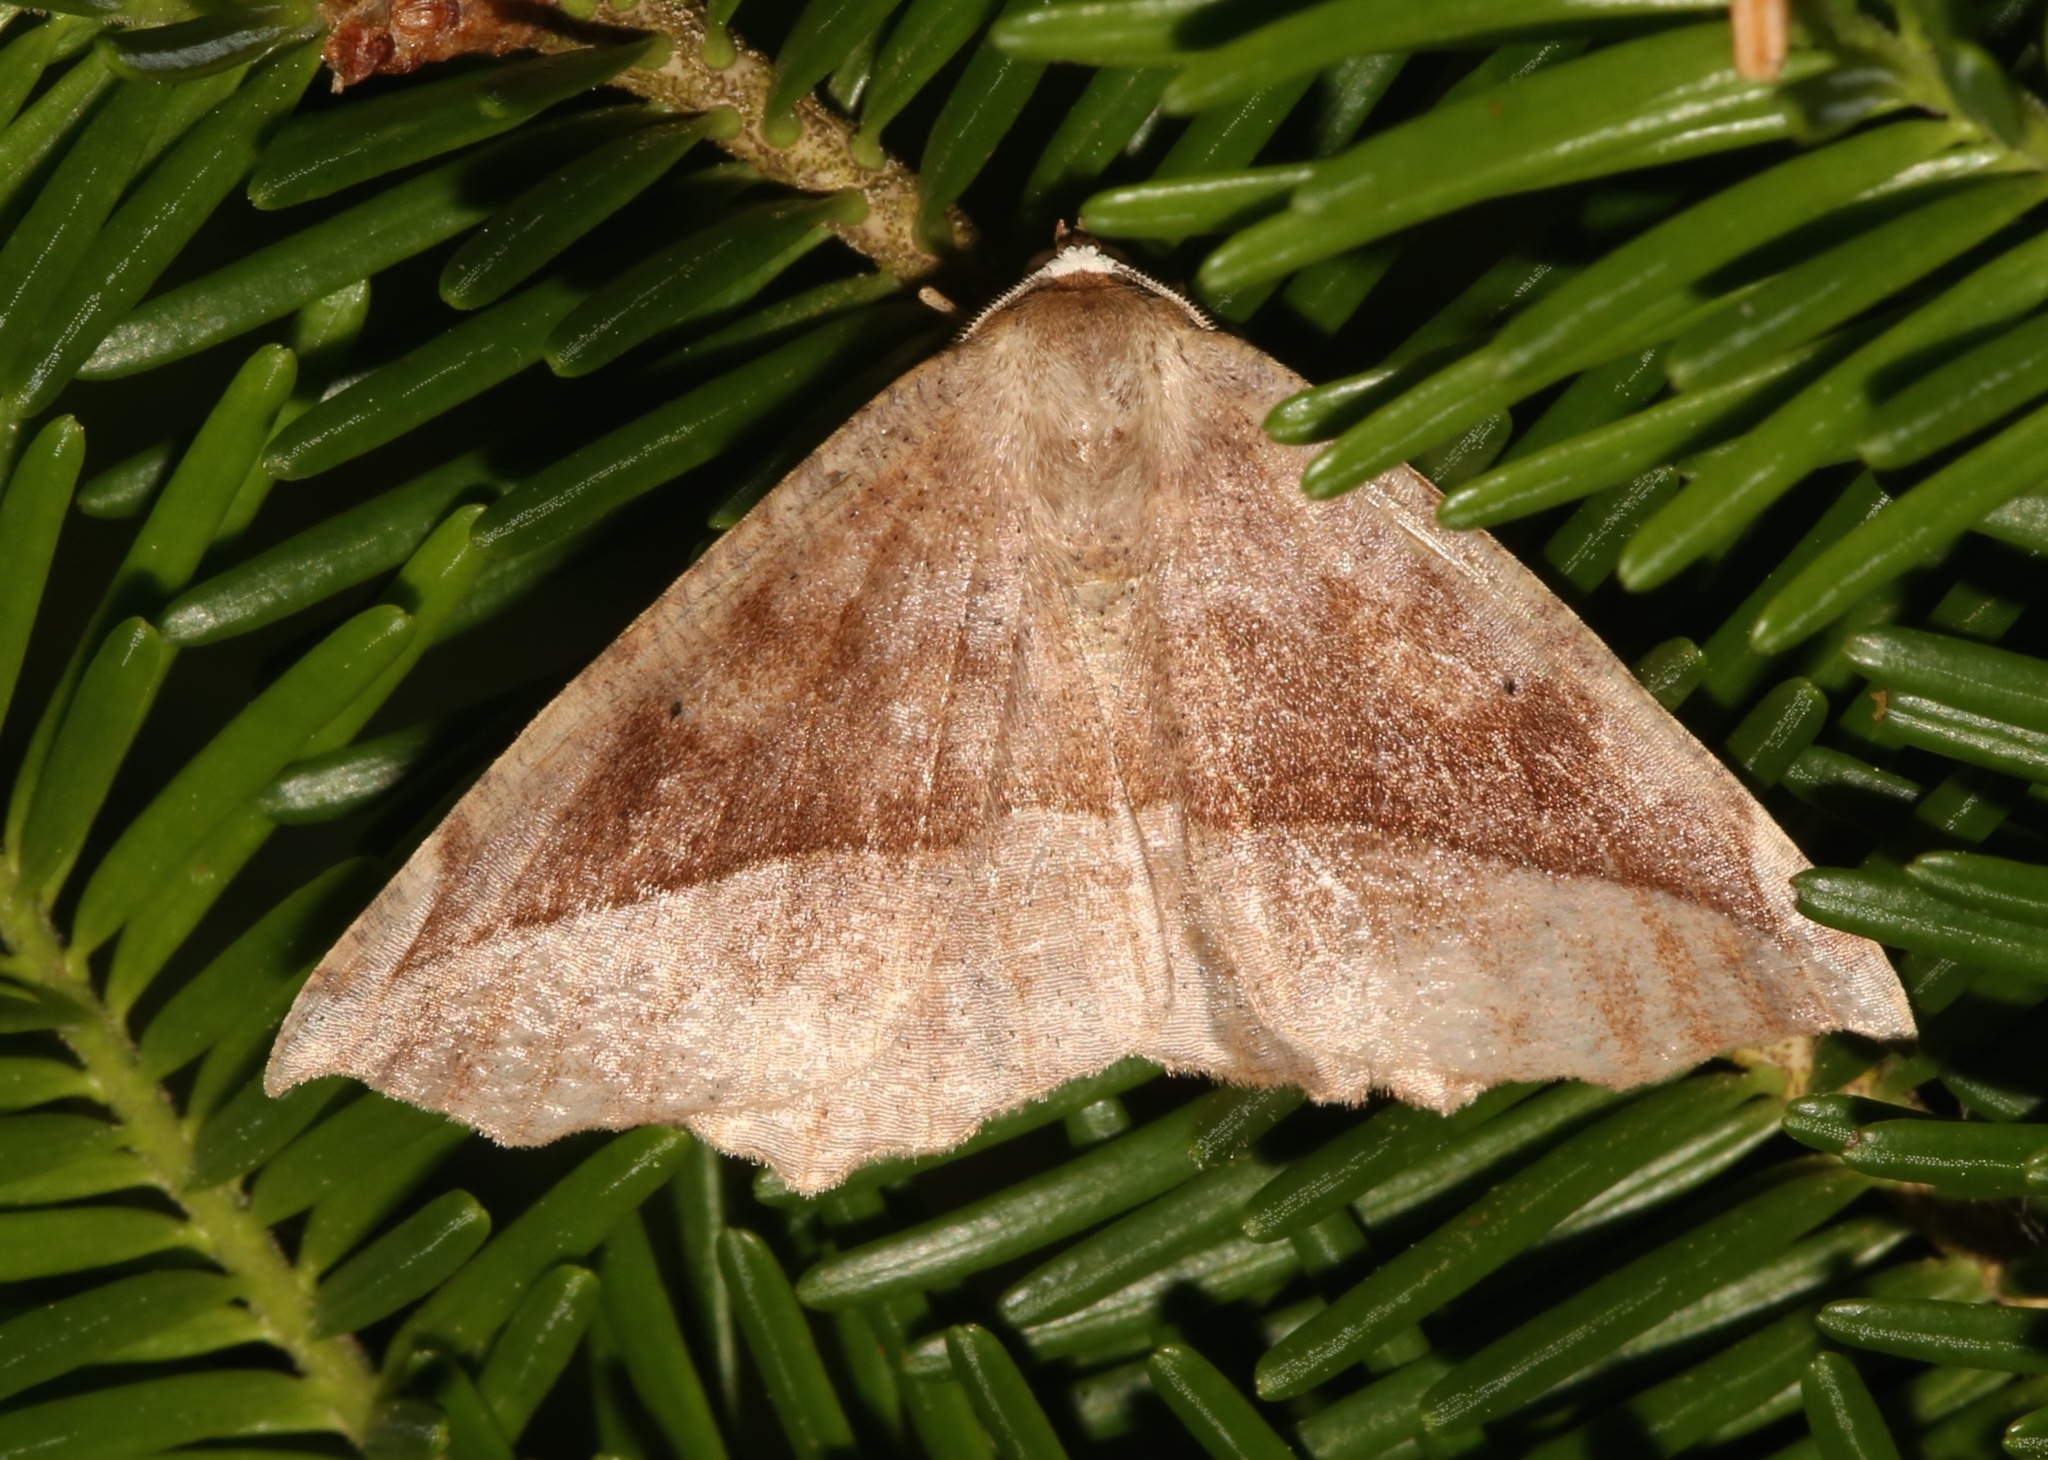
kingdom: Animalia
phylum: Arthropoda
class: Insecta
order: Lepidoptera
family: Geometridae
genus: Eutrapela
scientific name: Eutrapela clemataria
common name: Curved-toothed geometer
